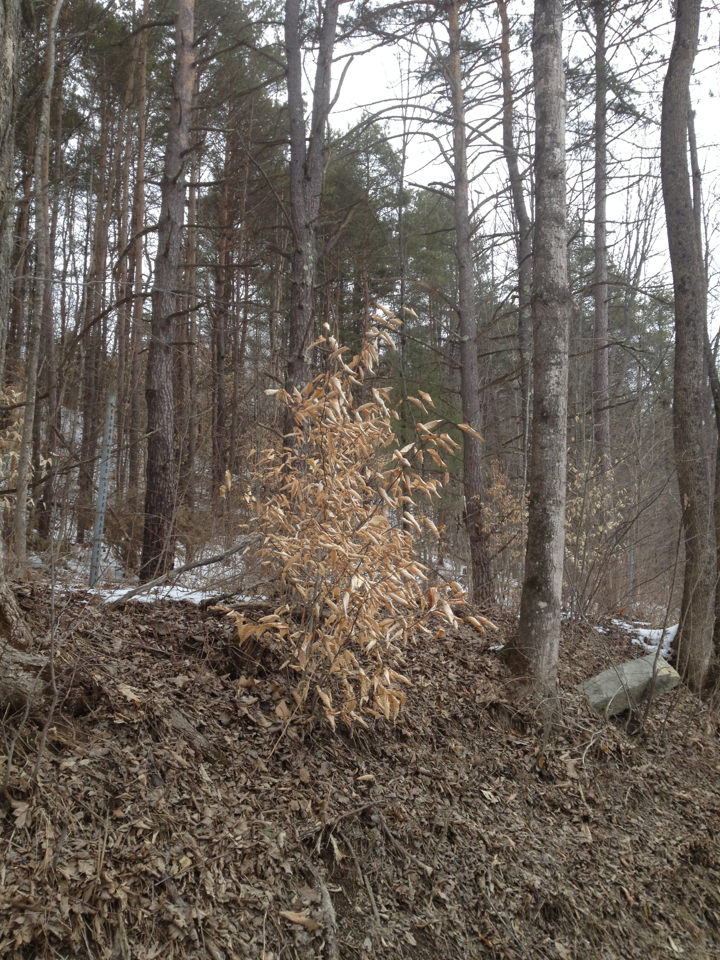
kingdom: Plantae
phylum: Tracheophyta
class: Magnoliopsida
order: Fagales
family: Fagaceae
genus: Fagus
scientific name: Fagus grandifolia
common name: American beech
